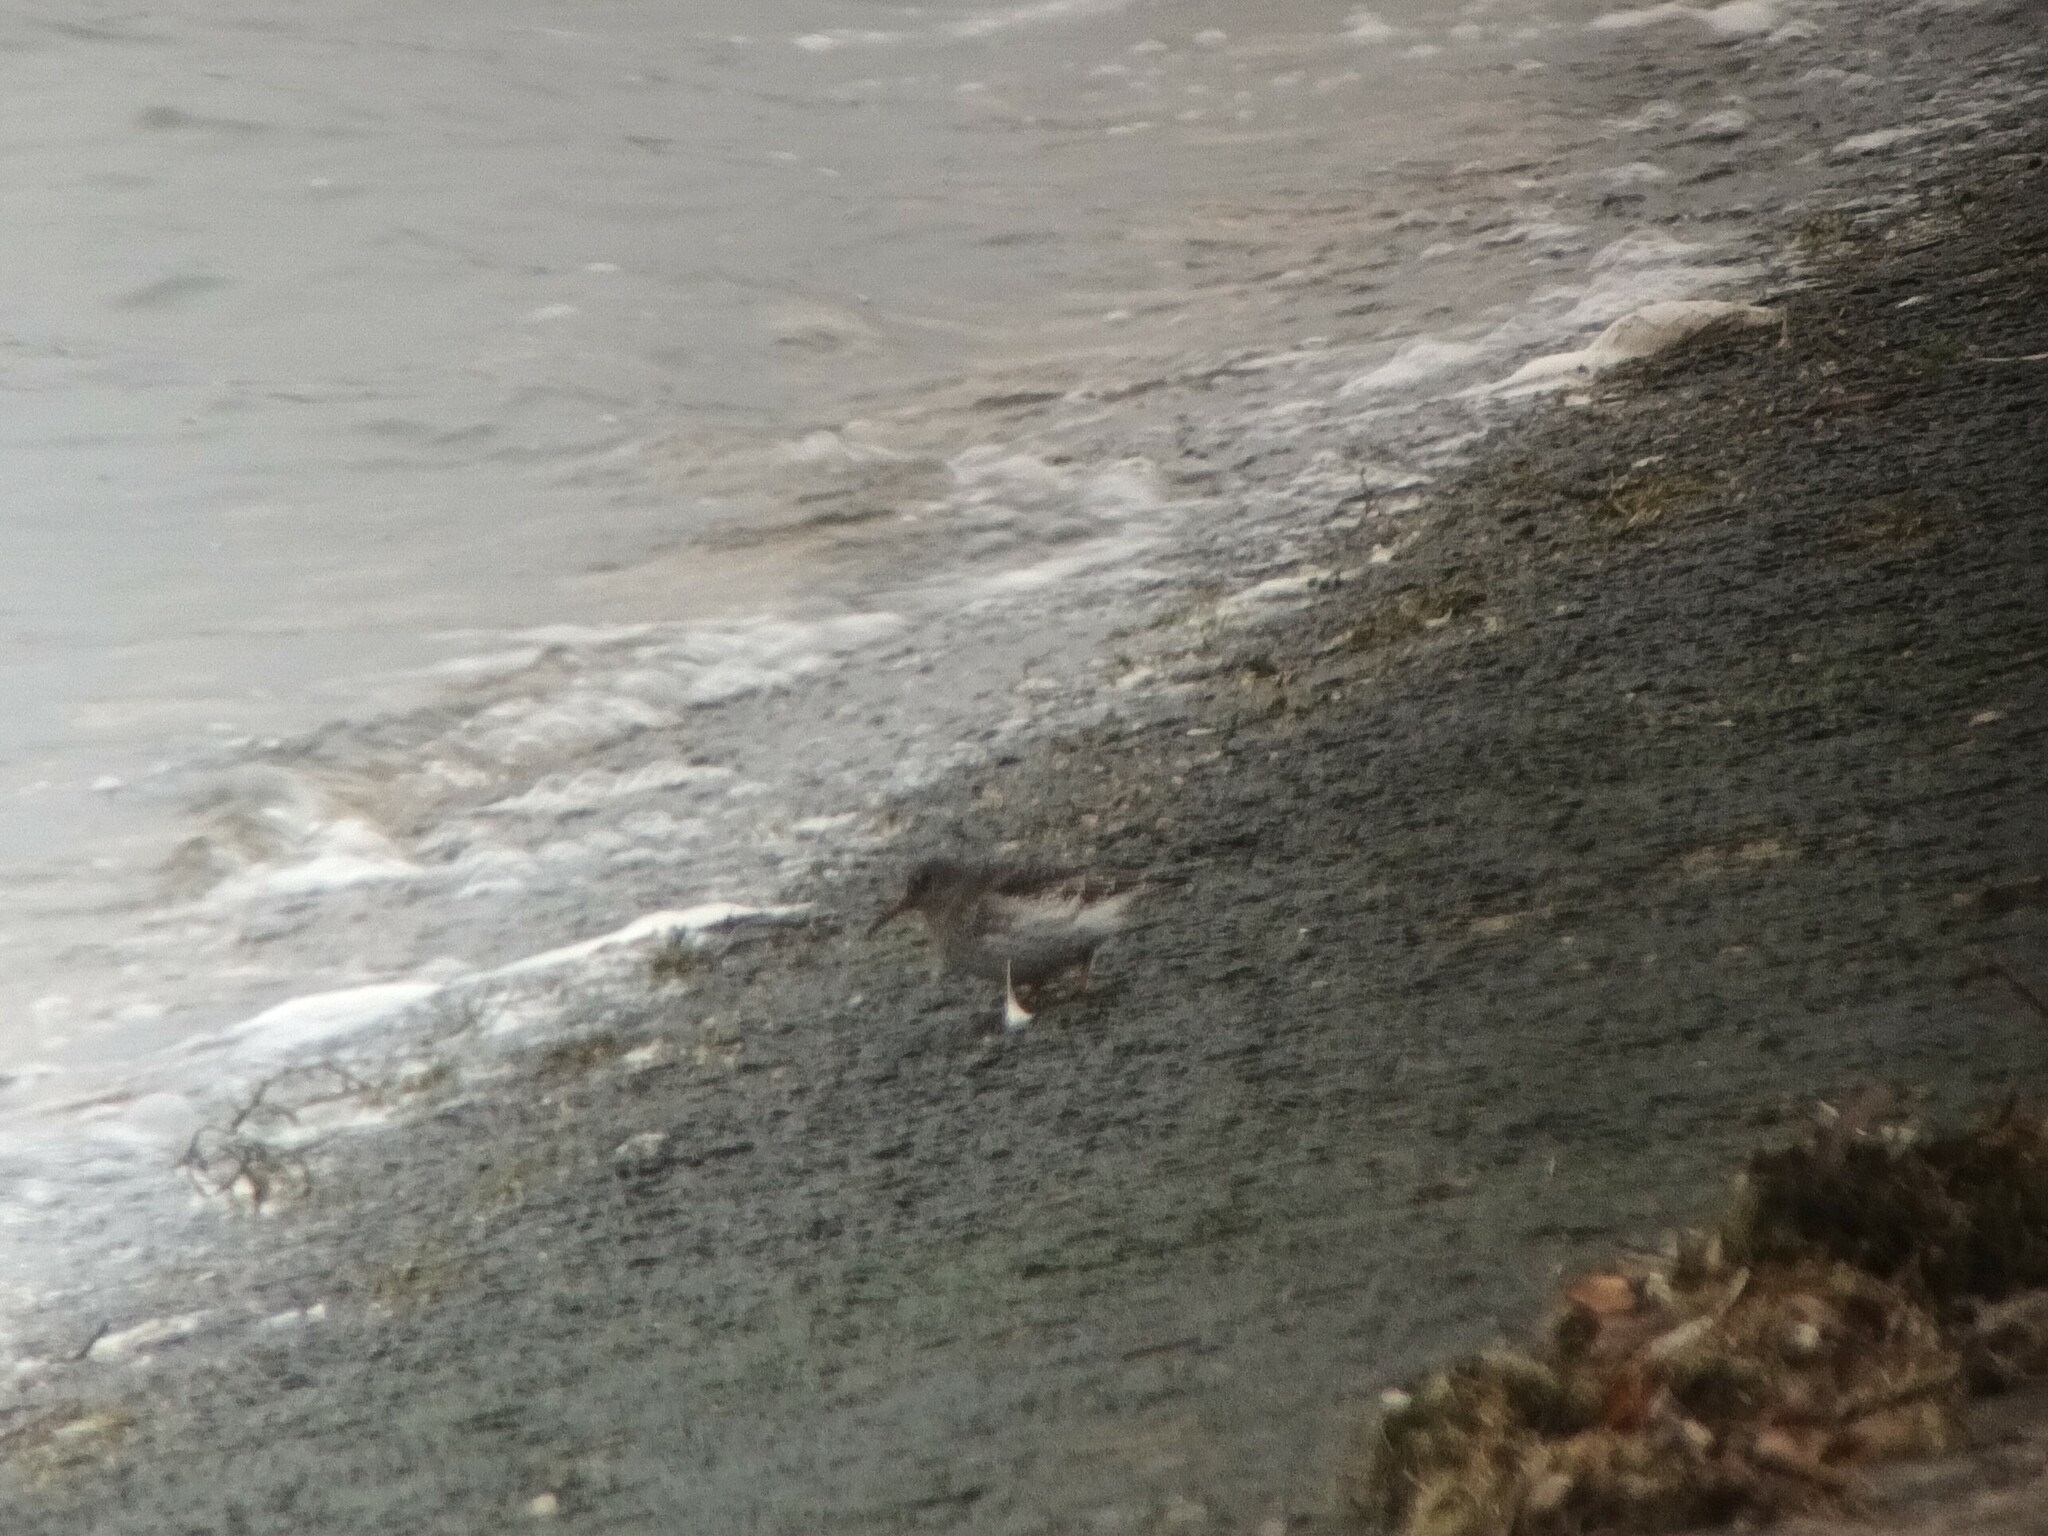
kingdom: Animalia
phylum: Chordata
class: Aves
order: Charadriiformes
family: Scolopacidae
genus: Calidris
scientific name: Calidris maritima
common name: Purple sandpiper
